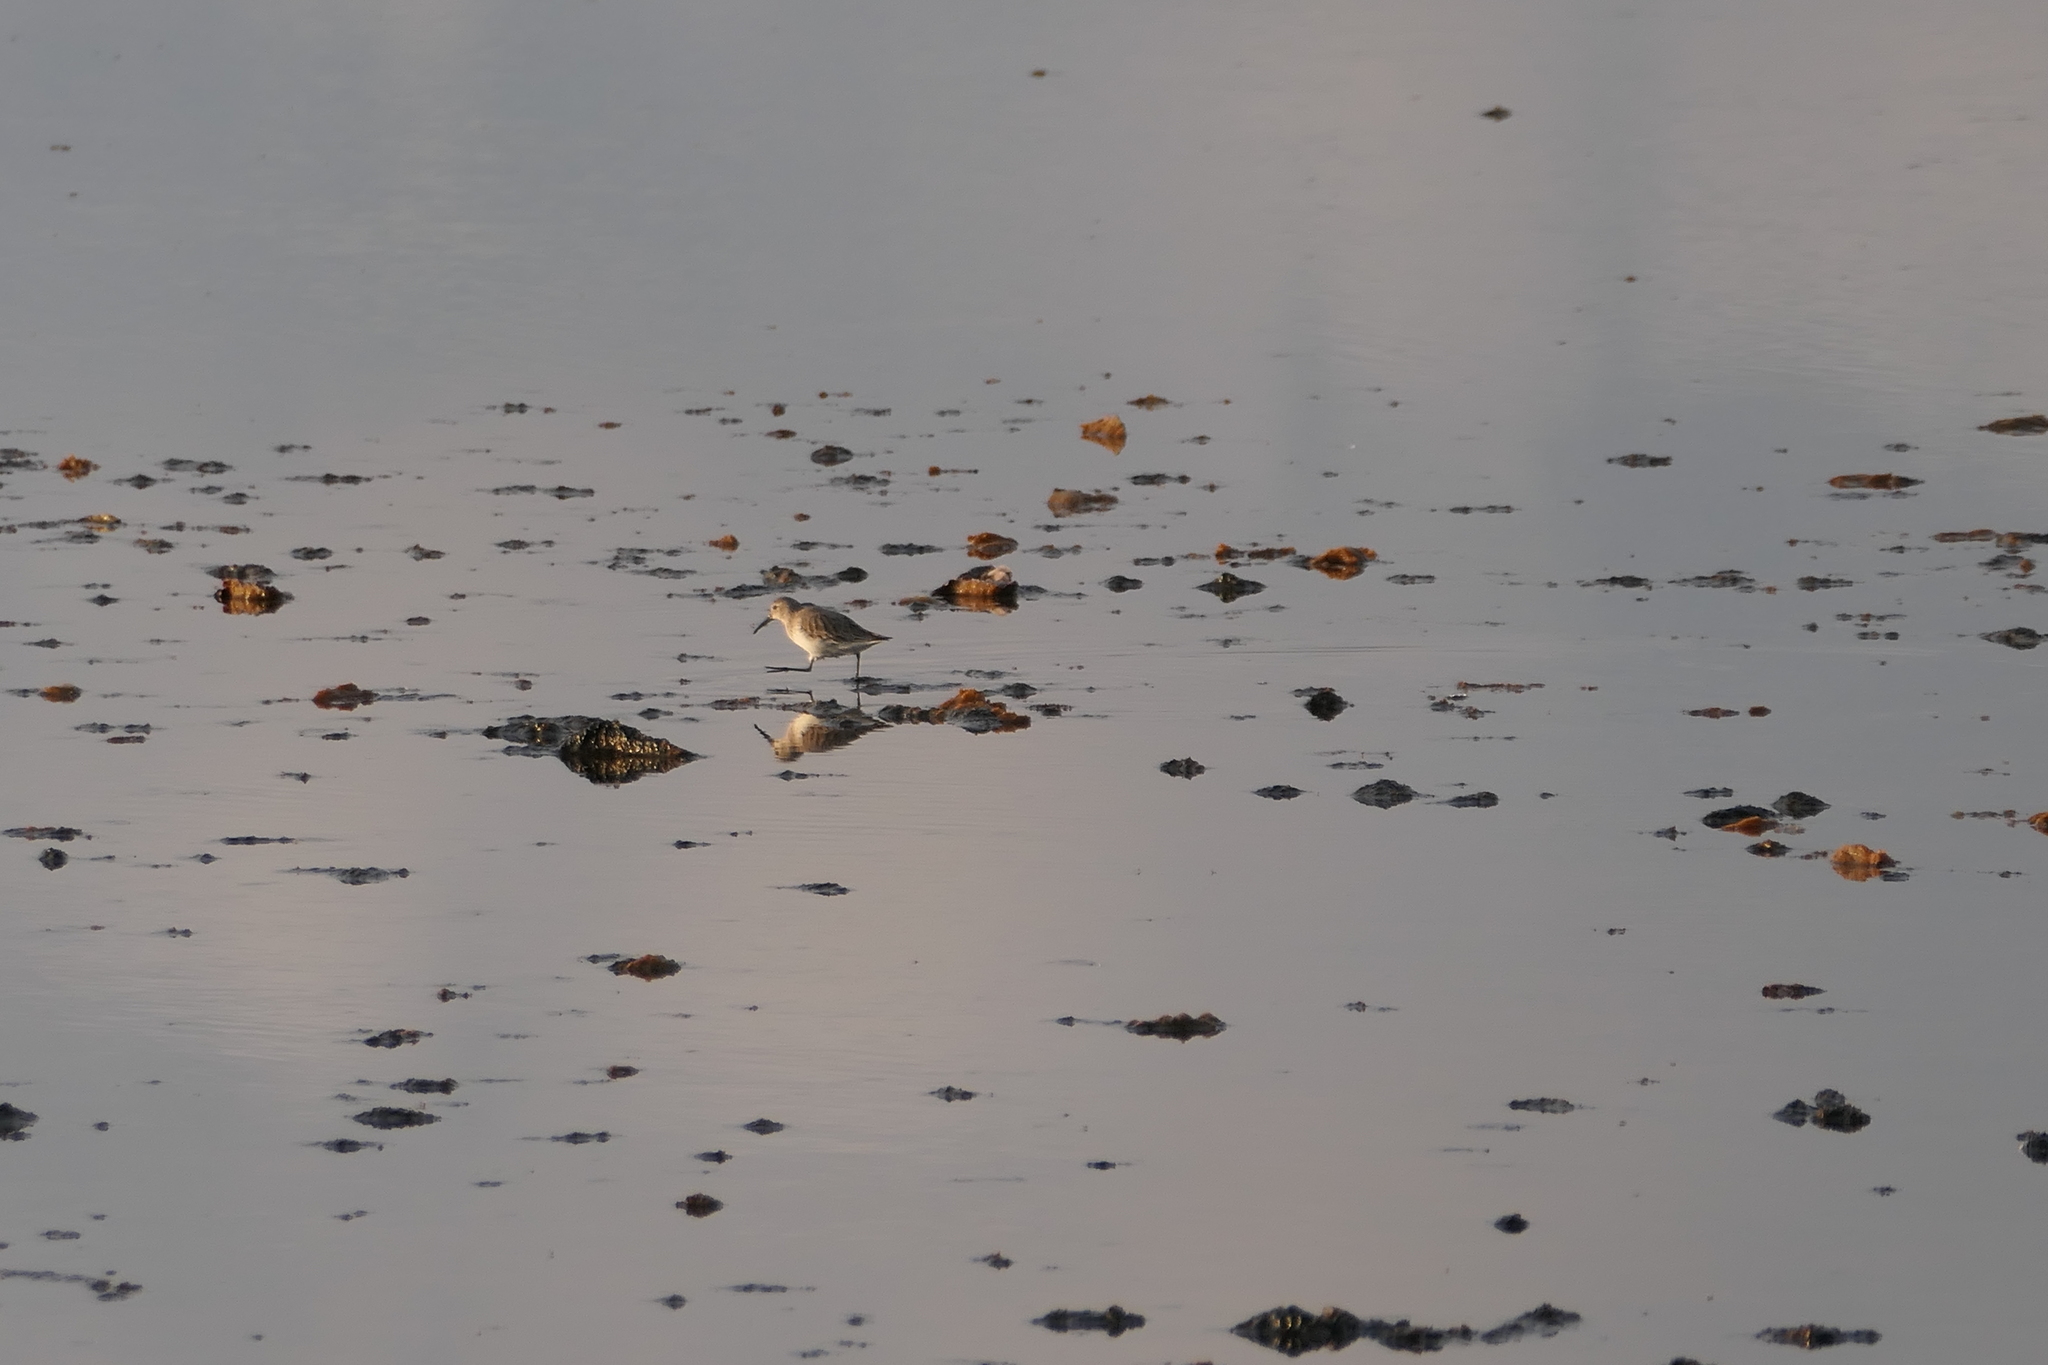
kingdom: Animalia
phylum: Chordata
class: Aves
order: Charadriiformes
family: Scolopacidae
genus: Calidris
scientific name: Calidris alpina
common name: Dunlin
